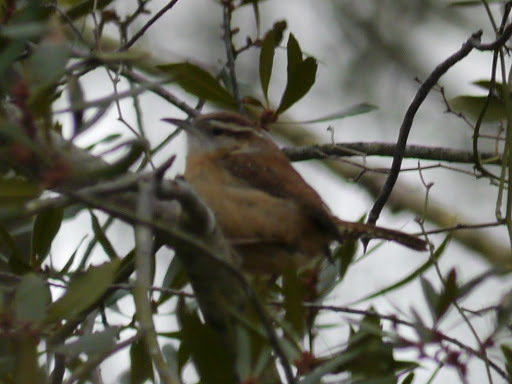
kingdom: Animalia
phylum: Chordata
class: Aves
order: Passeriformes
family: Troglodytidae
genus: Thryothorus
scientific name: Thryothorus ludovicianus
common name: Carolina wren
